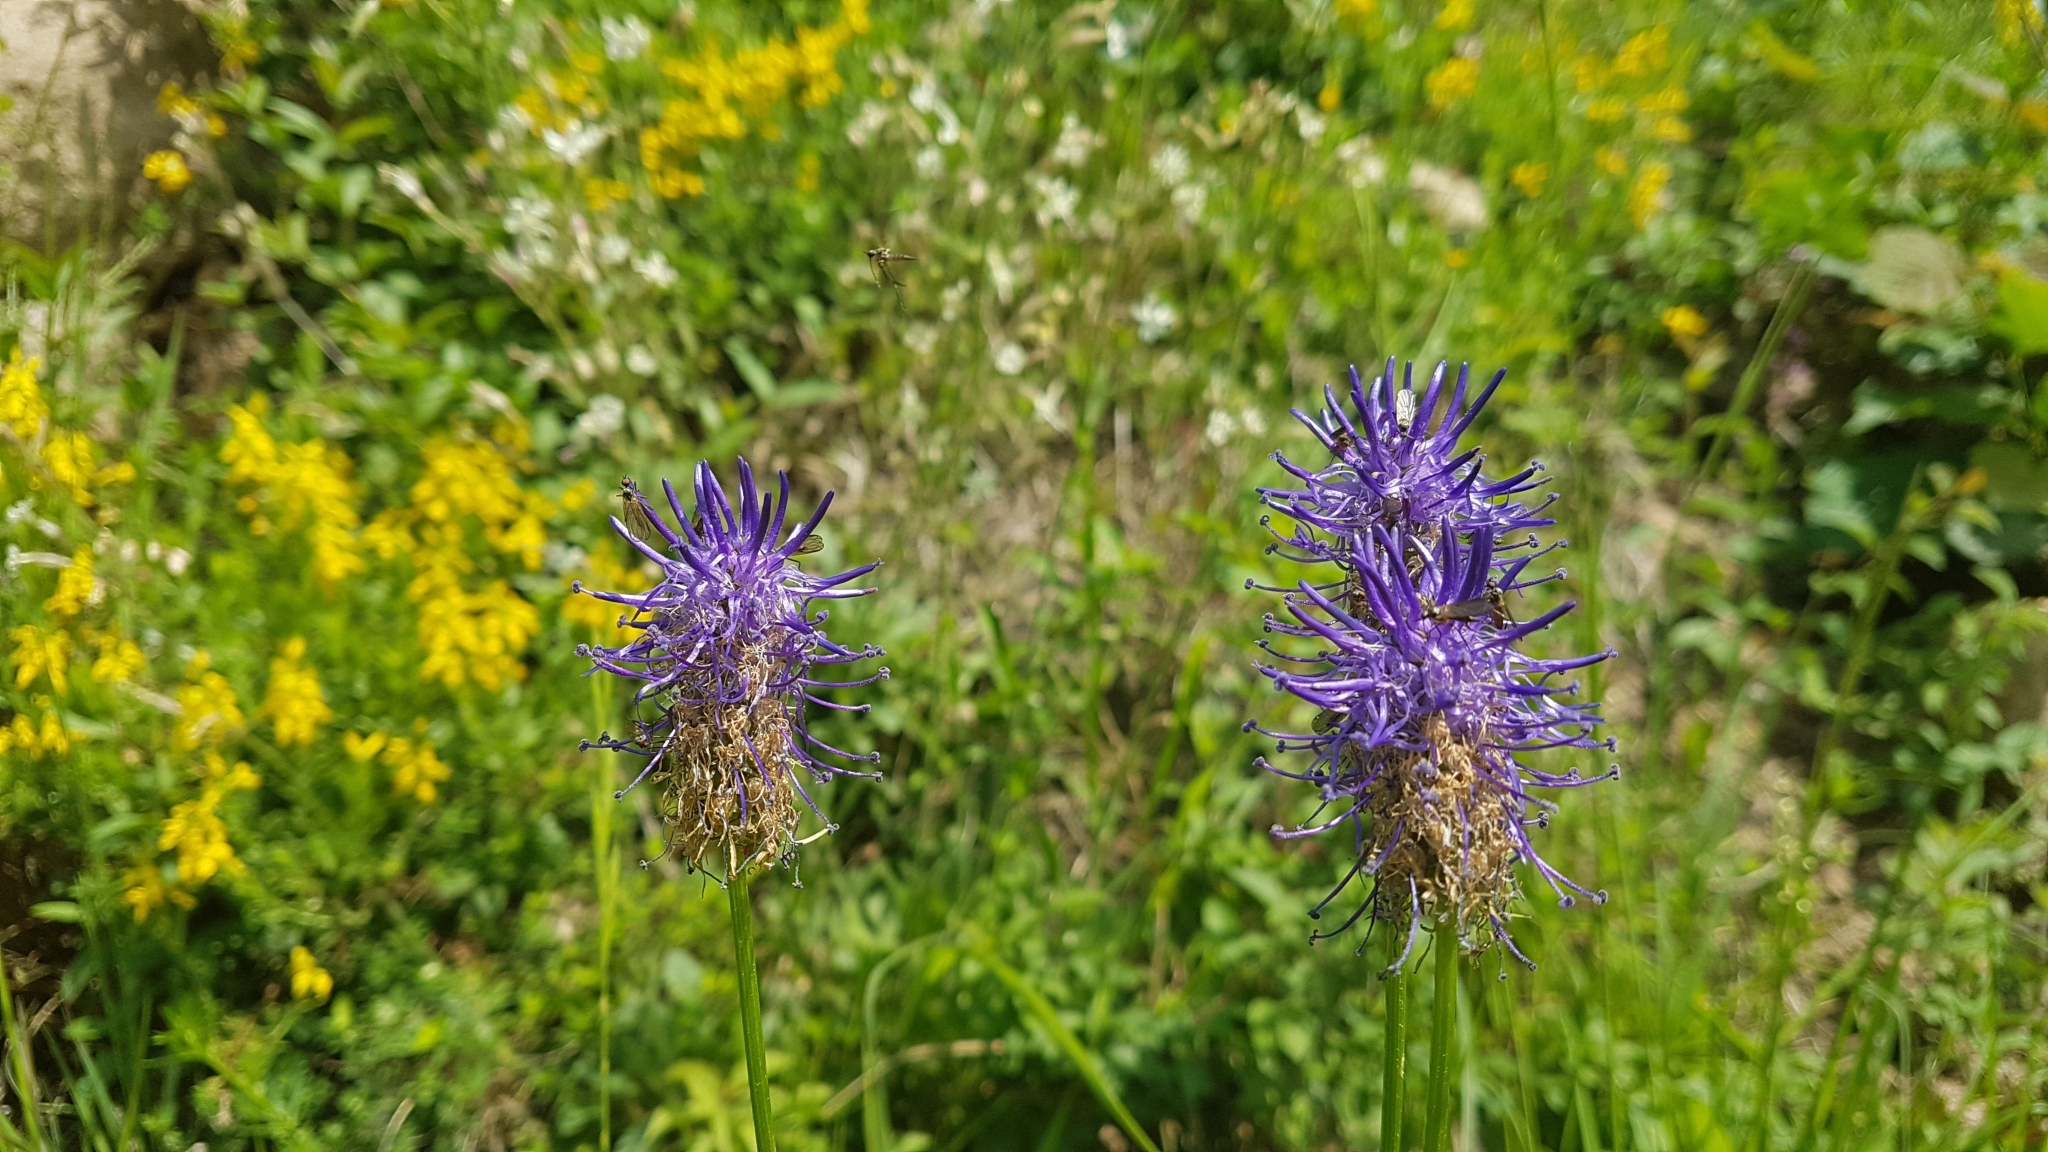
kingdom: Plantae
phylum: Tracheophyta
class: Magnoliopsida
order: Asterales
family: Campanulaceae
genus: Phyteuma
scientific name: Phyteuma betonicifolium
